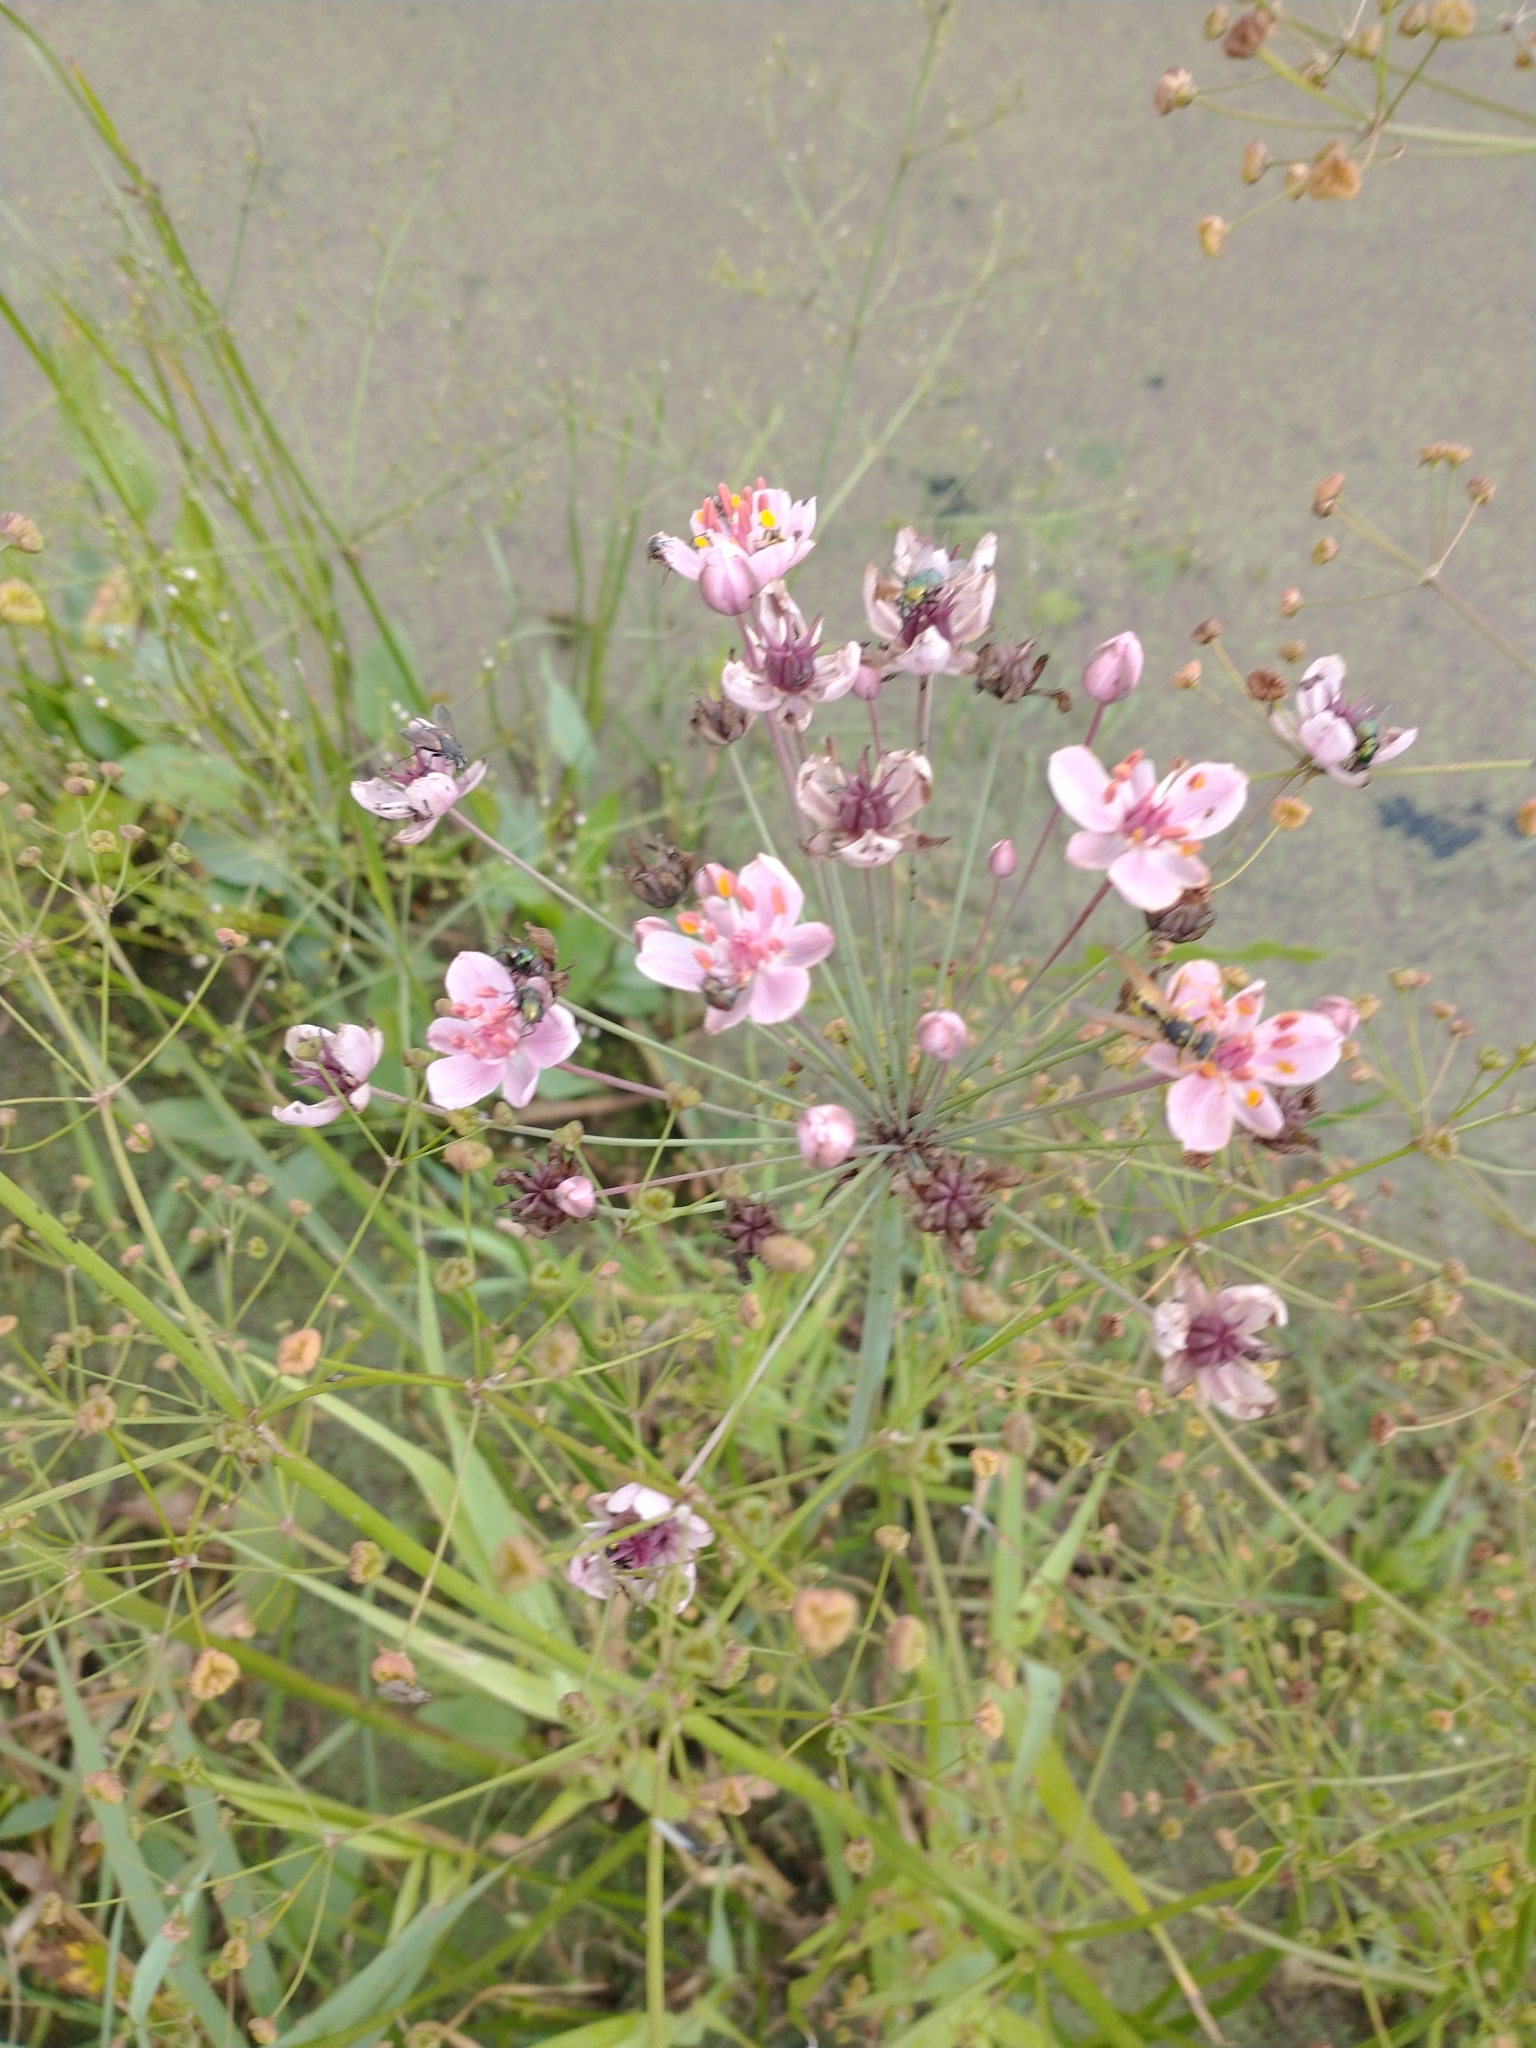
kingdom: Plantae
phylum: Tracheophyta
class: Liliopsida
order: Alismatales
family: Butomaceae
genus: Butomus
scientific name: Butomus umbellatus
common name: Flowering-rush
